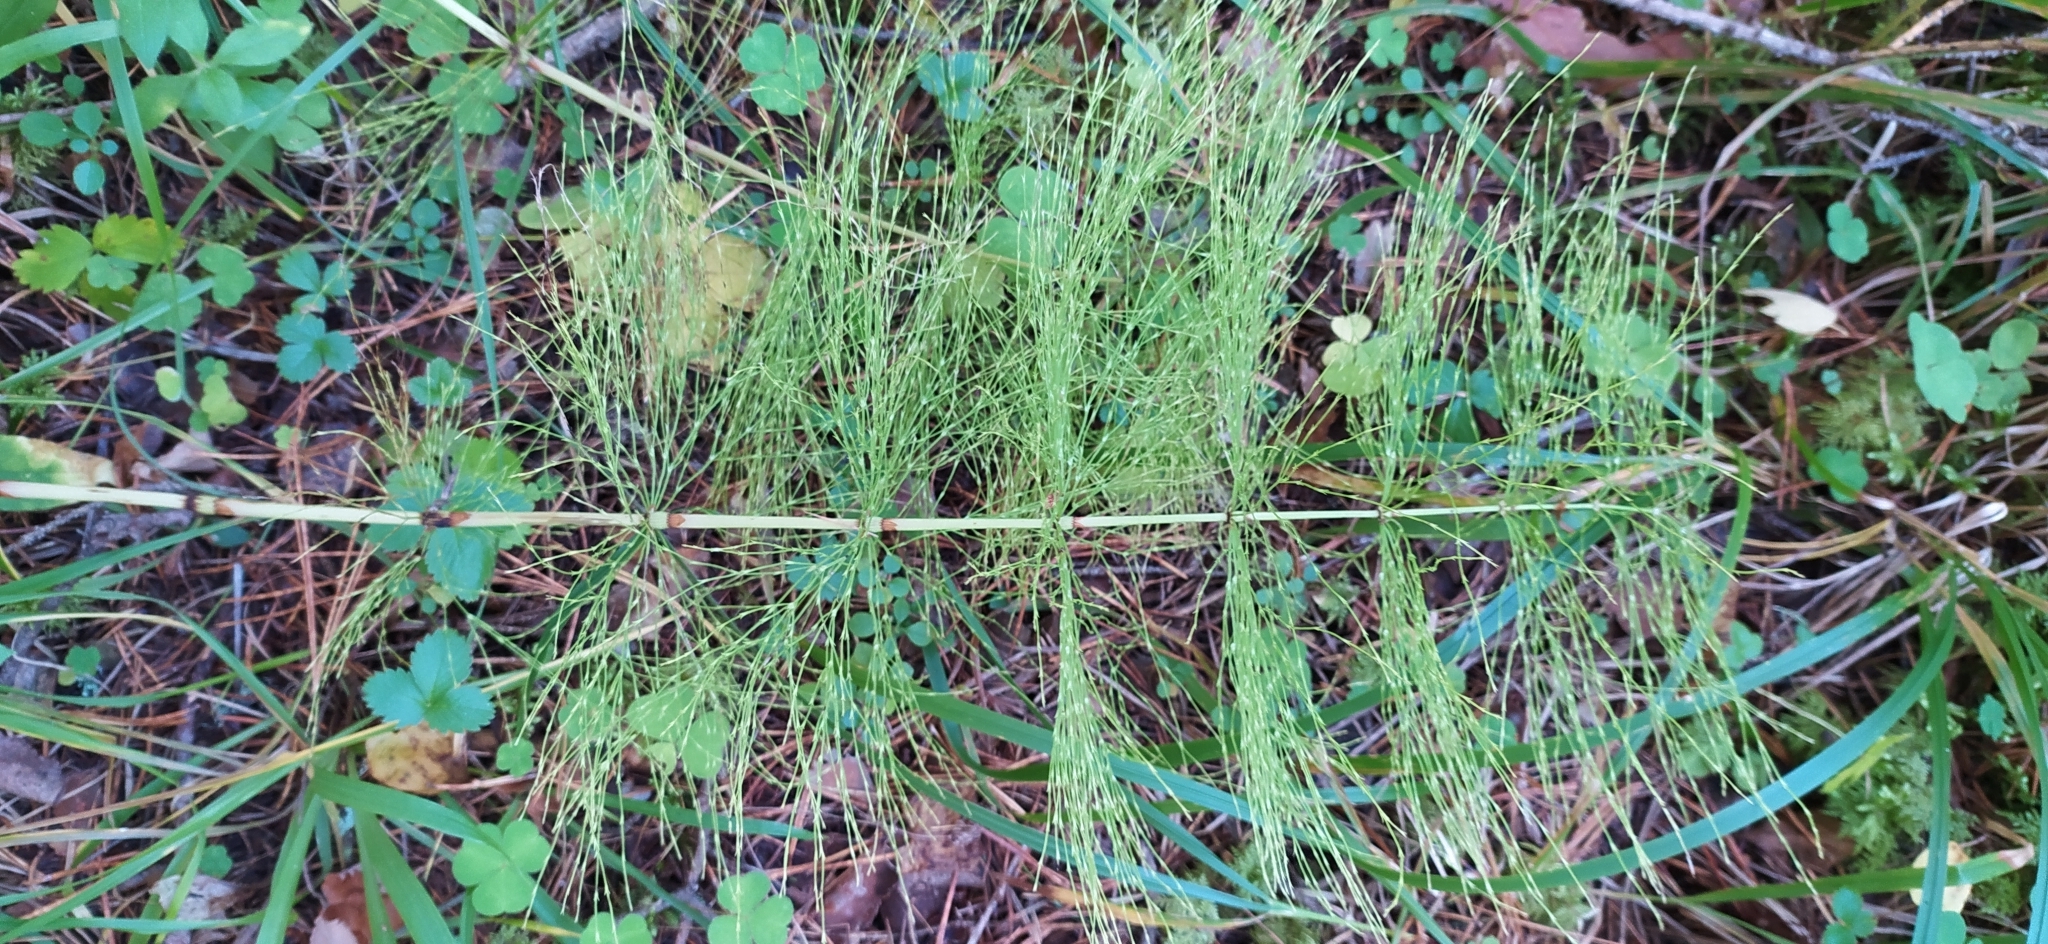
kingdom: Plantae
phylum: Tracheophyta
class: Polypodiopsida
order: Equisetales
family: Equisetaceae
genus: Equisetum
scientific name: Equisetum sylvaticum
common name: Wood horsetail
